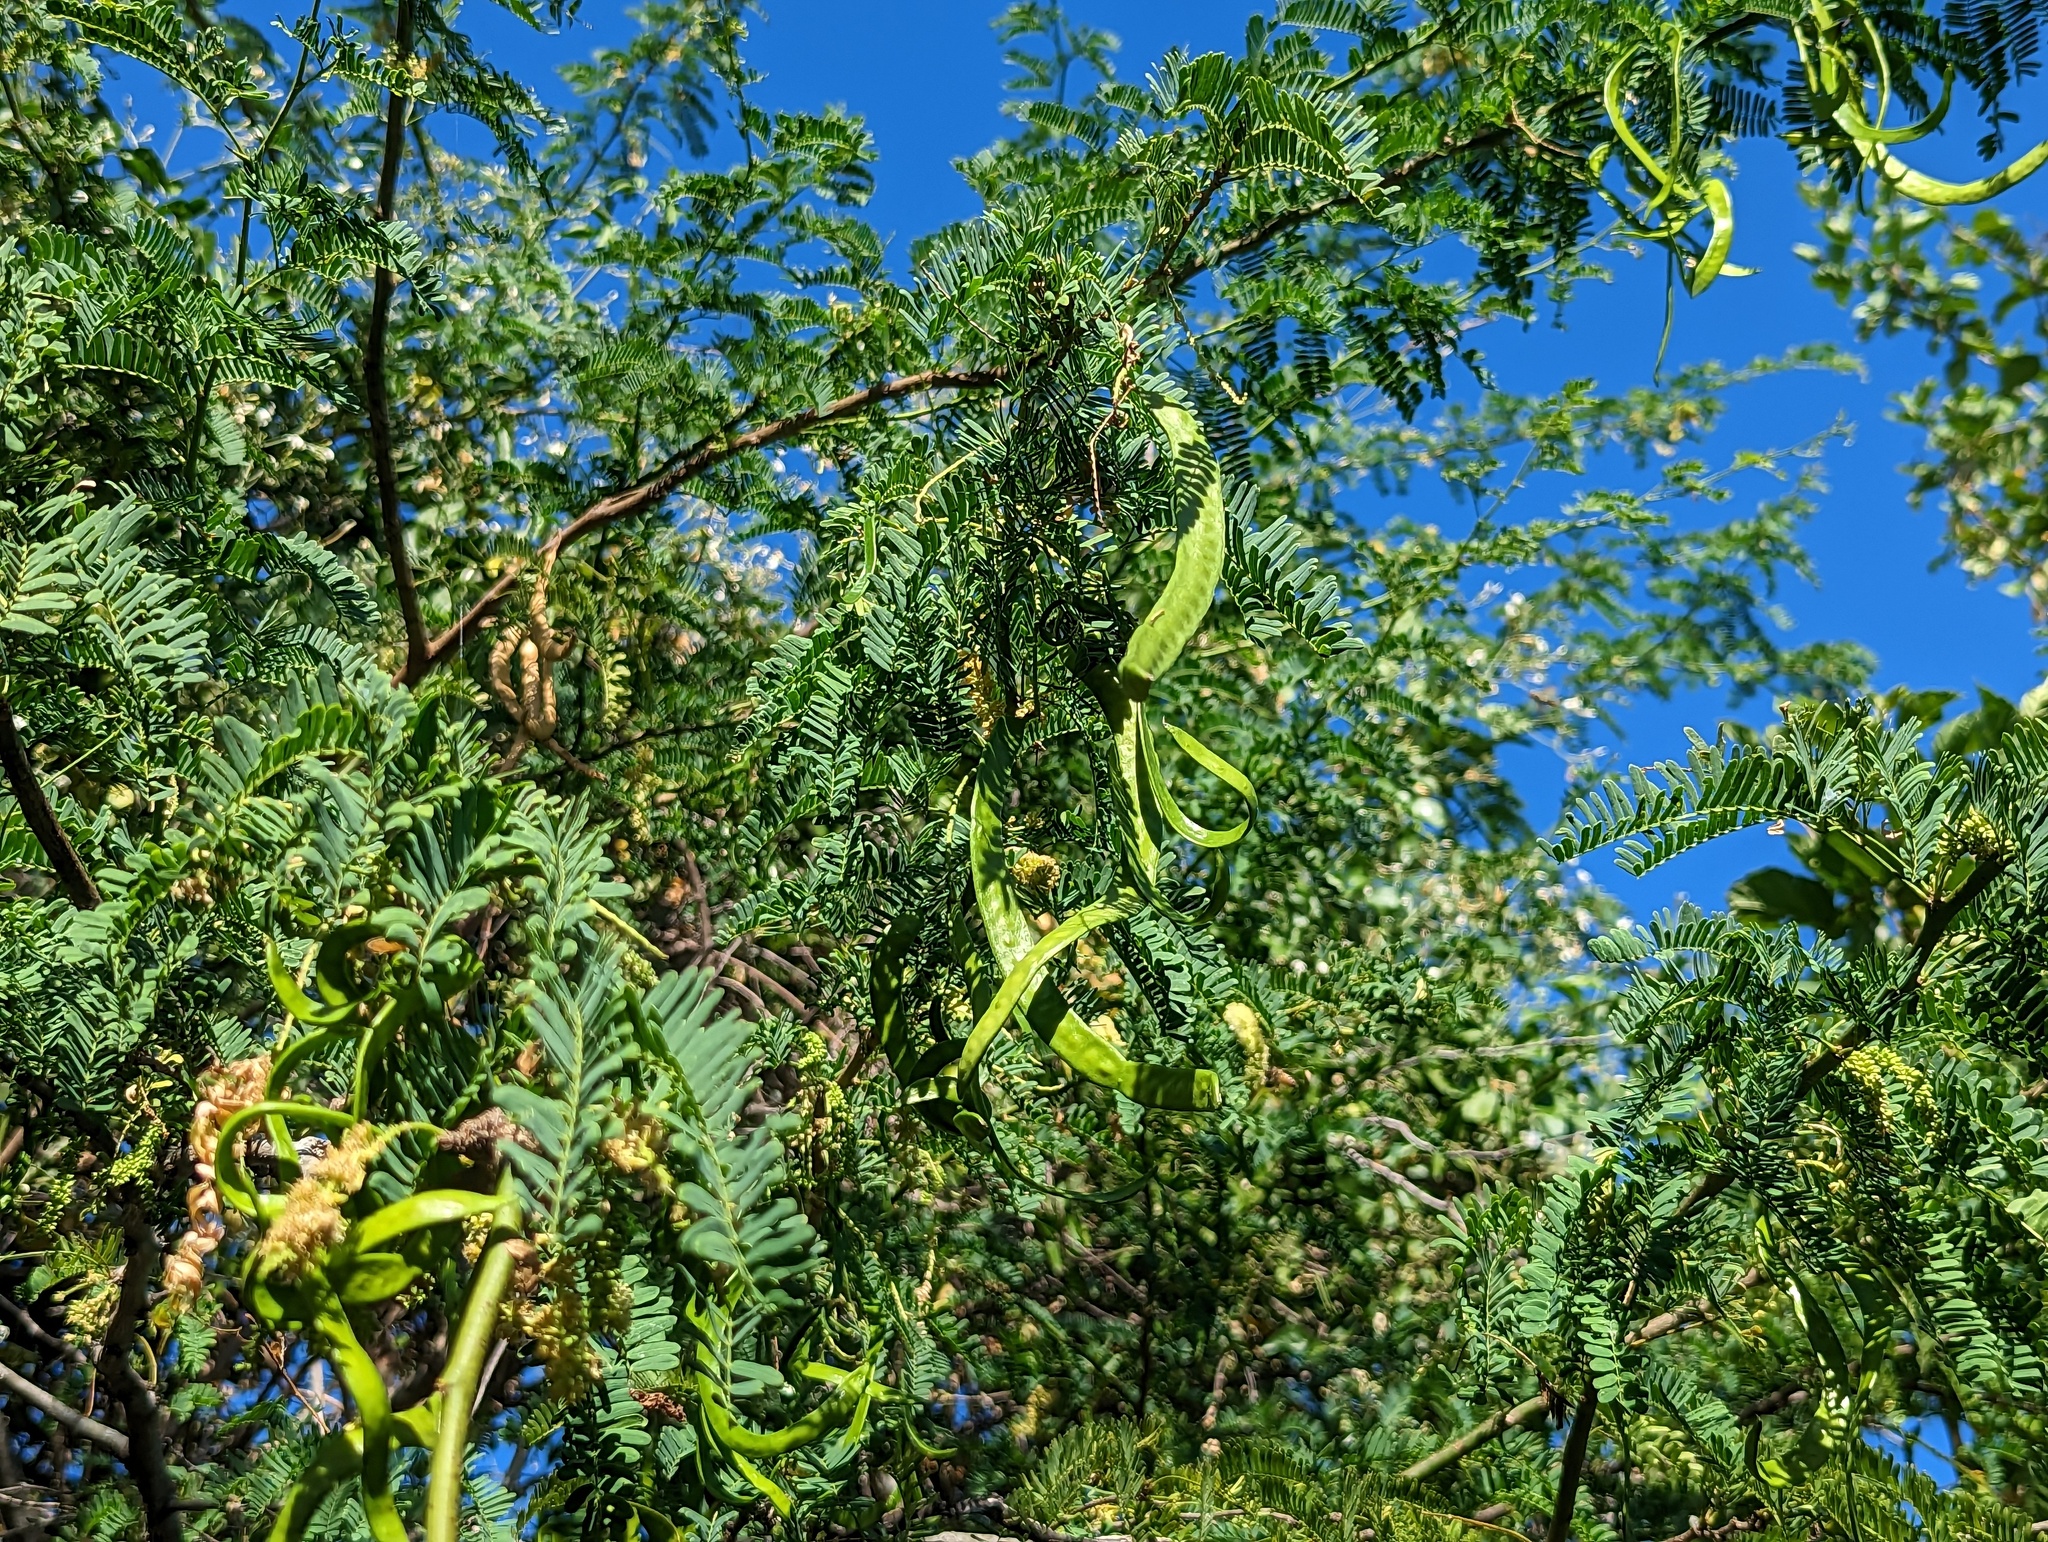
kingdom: Plantae
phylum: Tracheophyta
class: Magnoliopsida
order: Fabales
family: Fabaceae
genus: Prosopis
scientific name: Prosopis juliflora
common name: Mesquite
